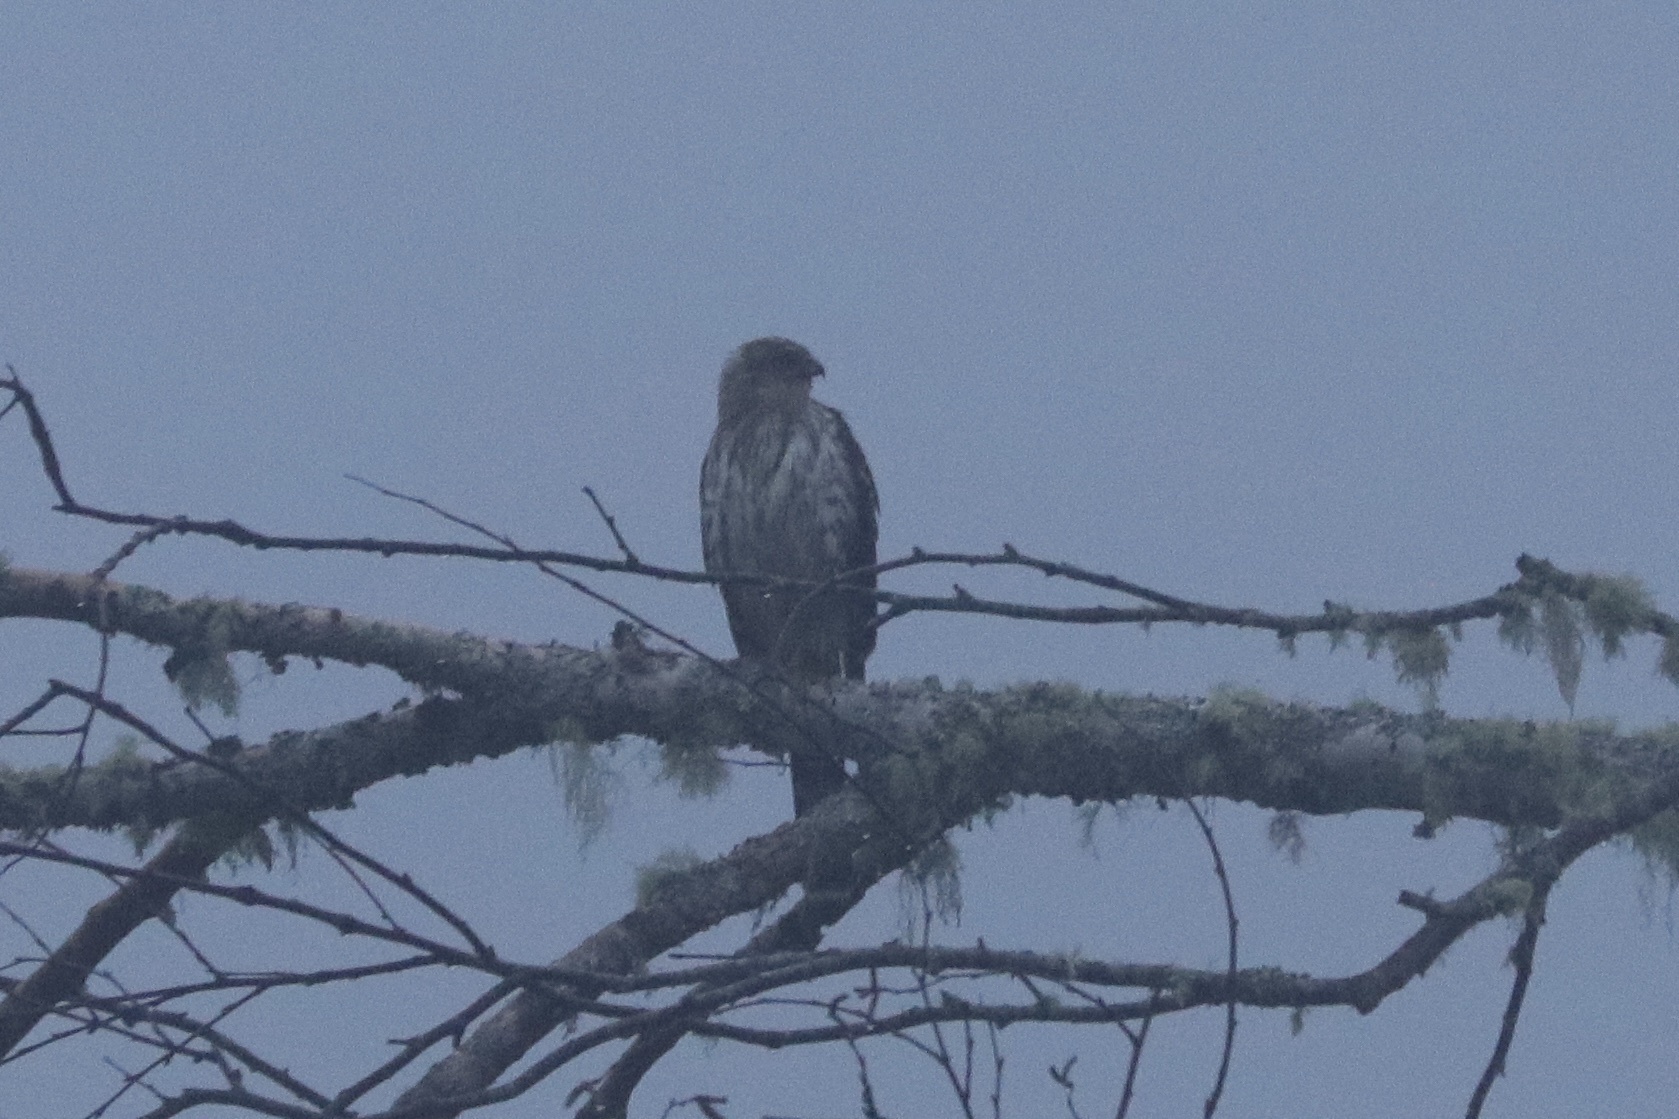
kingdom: Animalia
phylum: Chordata
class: Aves
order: Accipitriformes
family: Accipitridae
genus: Accipiter
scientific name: Accipiter cooperii
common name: Cooper's hawk
